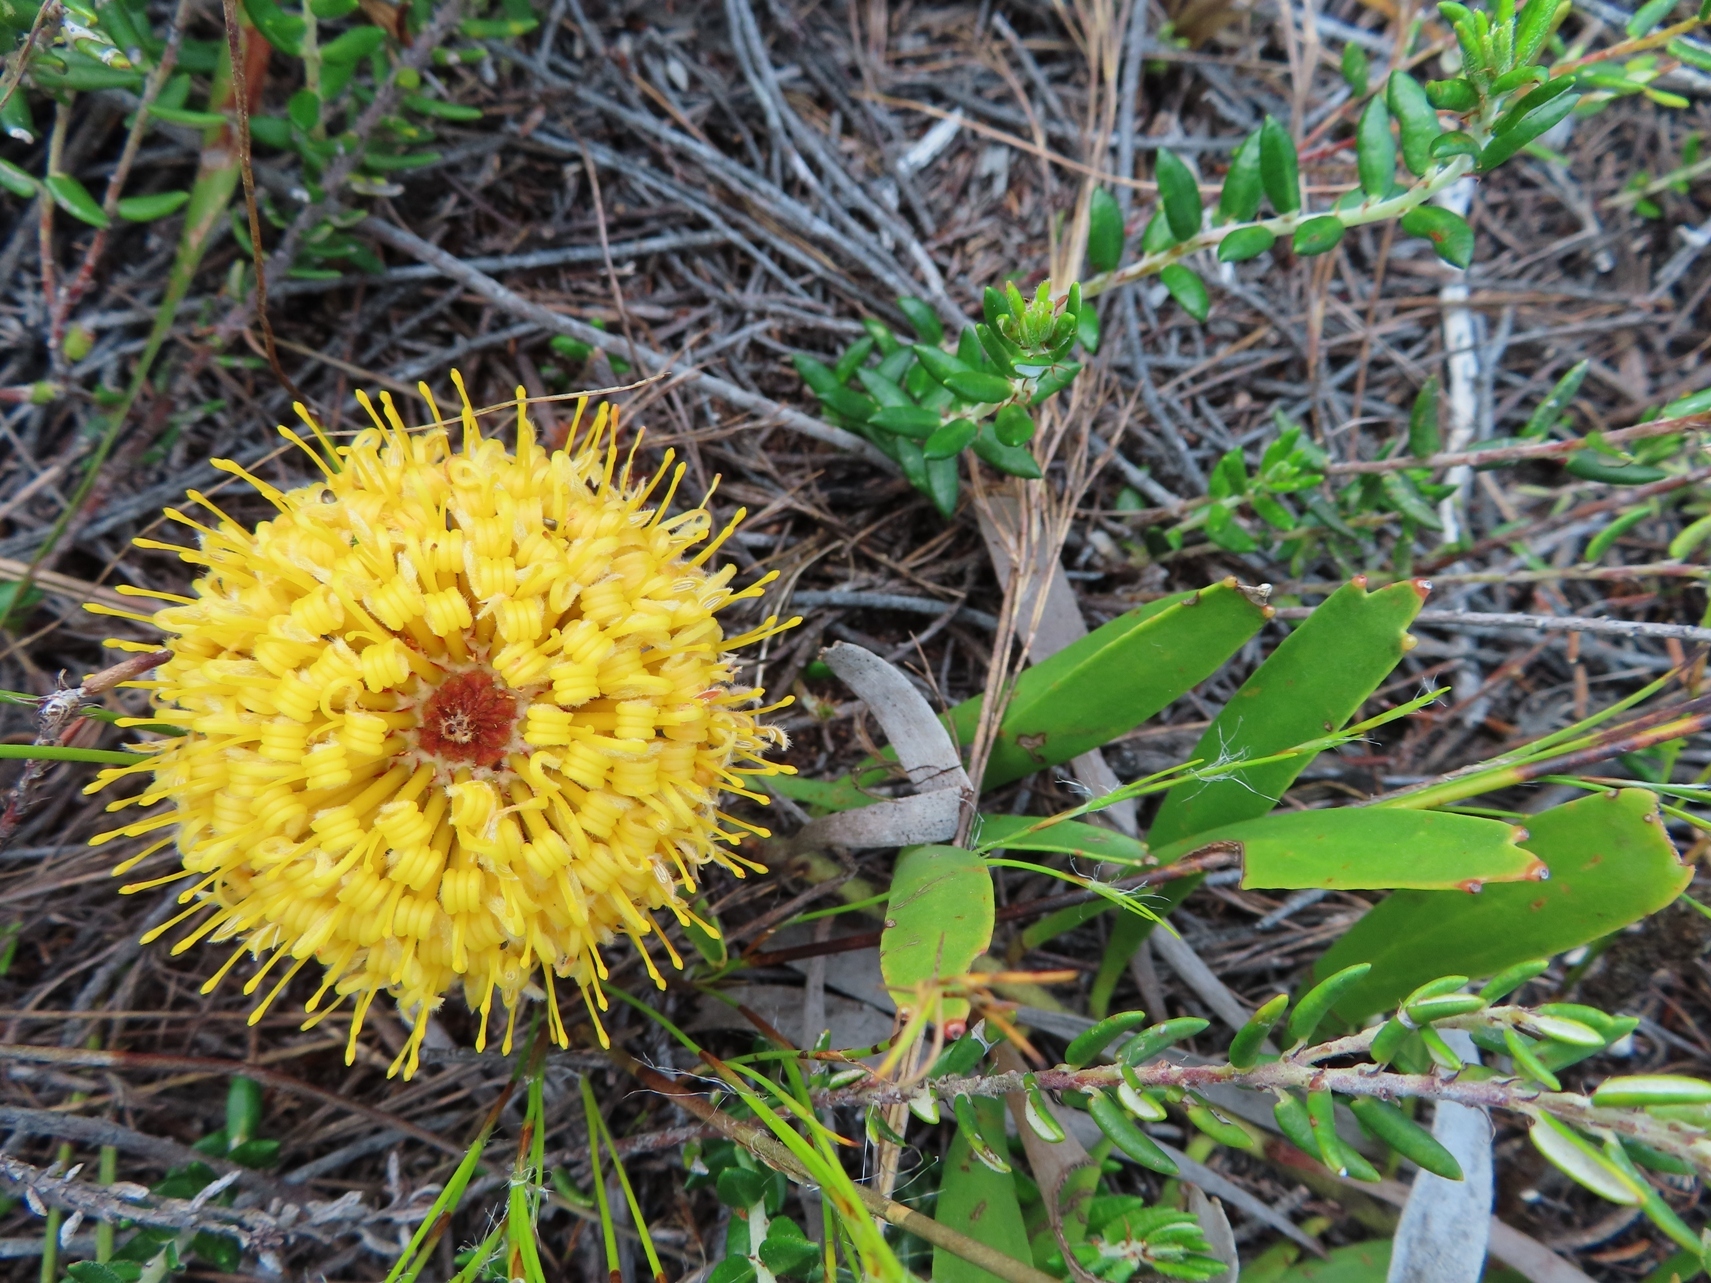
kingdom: Plantae
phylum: Tracheophyta
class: Magnoliopsida
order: Proteales
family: Proteaceae
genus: Leucospermum
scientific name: Leucospermum hypophyllocarpodendron
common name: Snakestem pincushion
